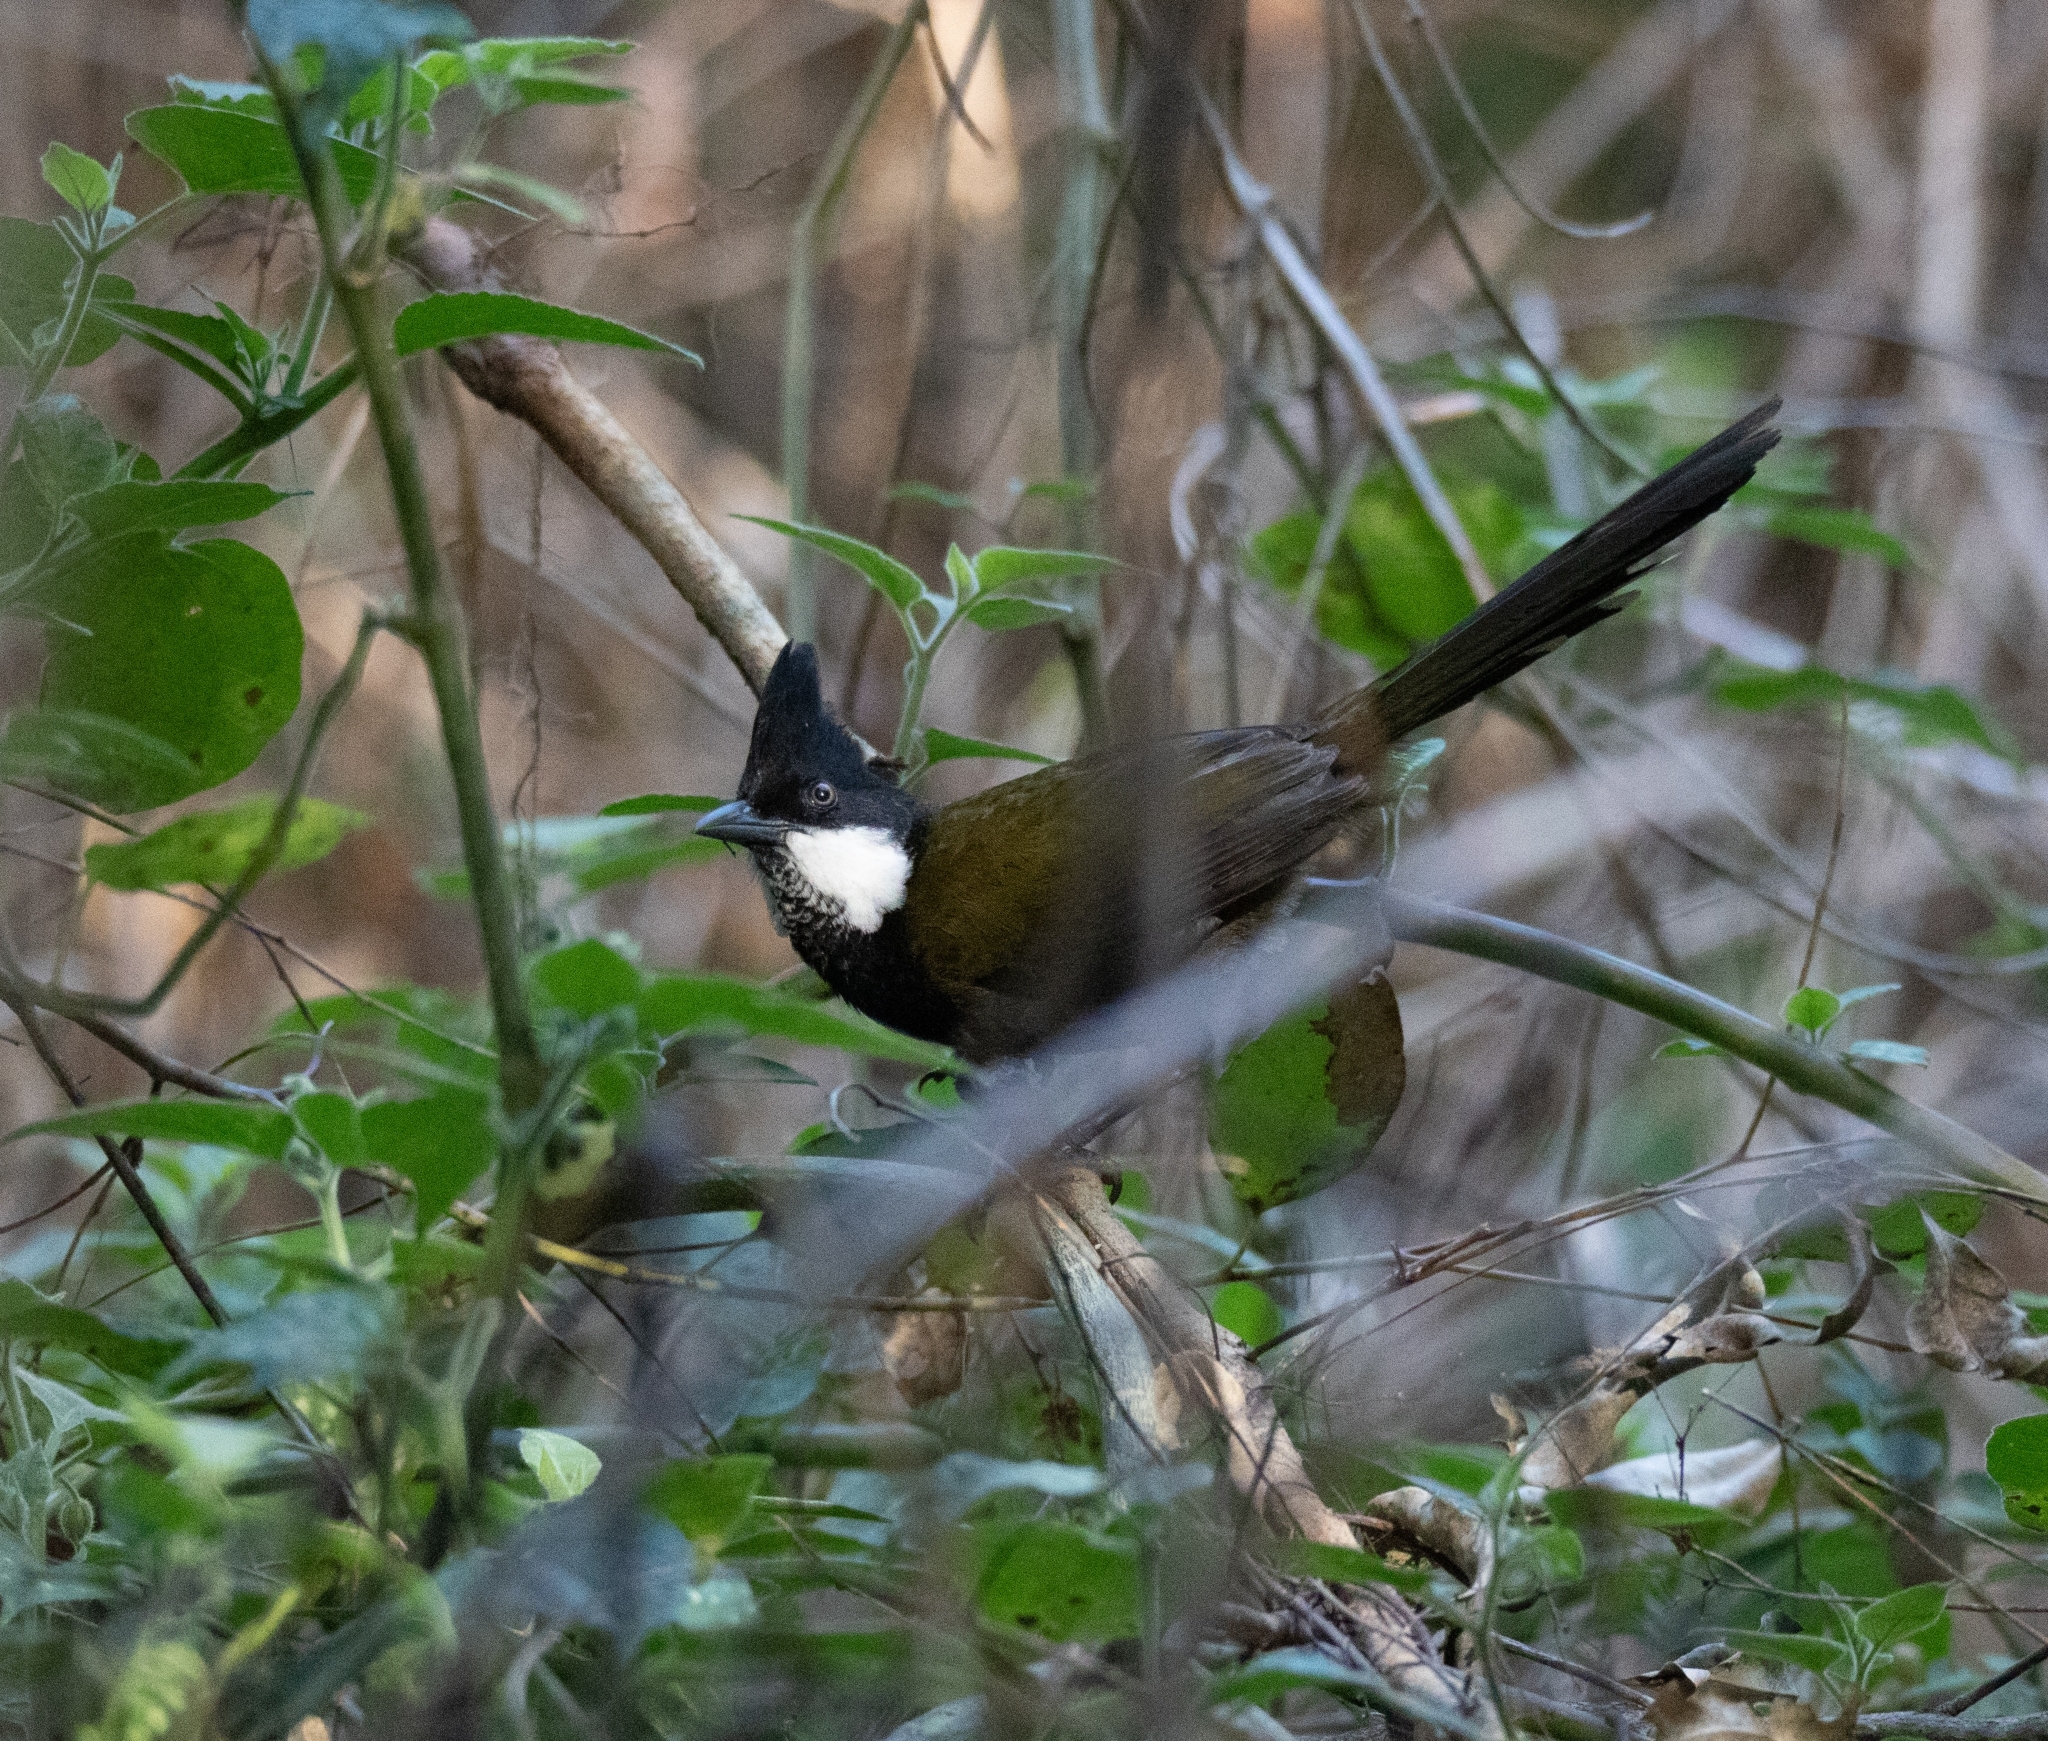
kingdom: Animalia
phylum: Chordata
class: Aves
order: Passeriformes
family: Psophodidae
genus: Psophodes
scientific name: Psophodes olivaceus
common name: Eastern whipbird
